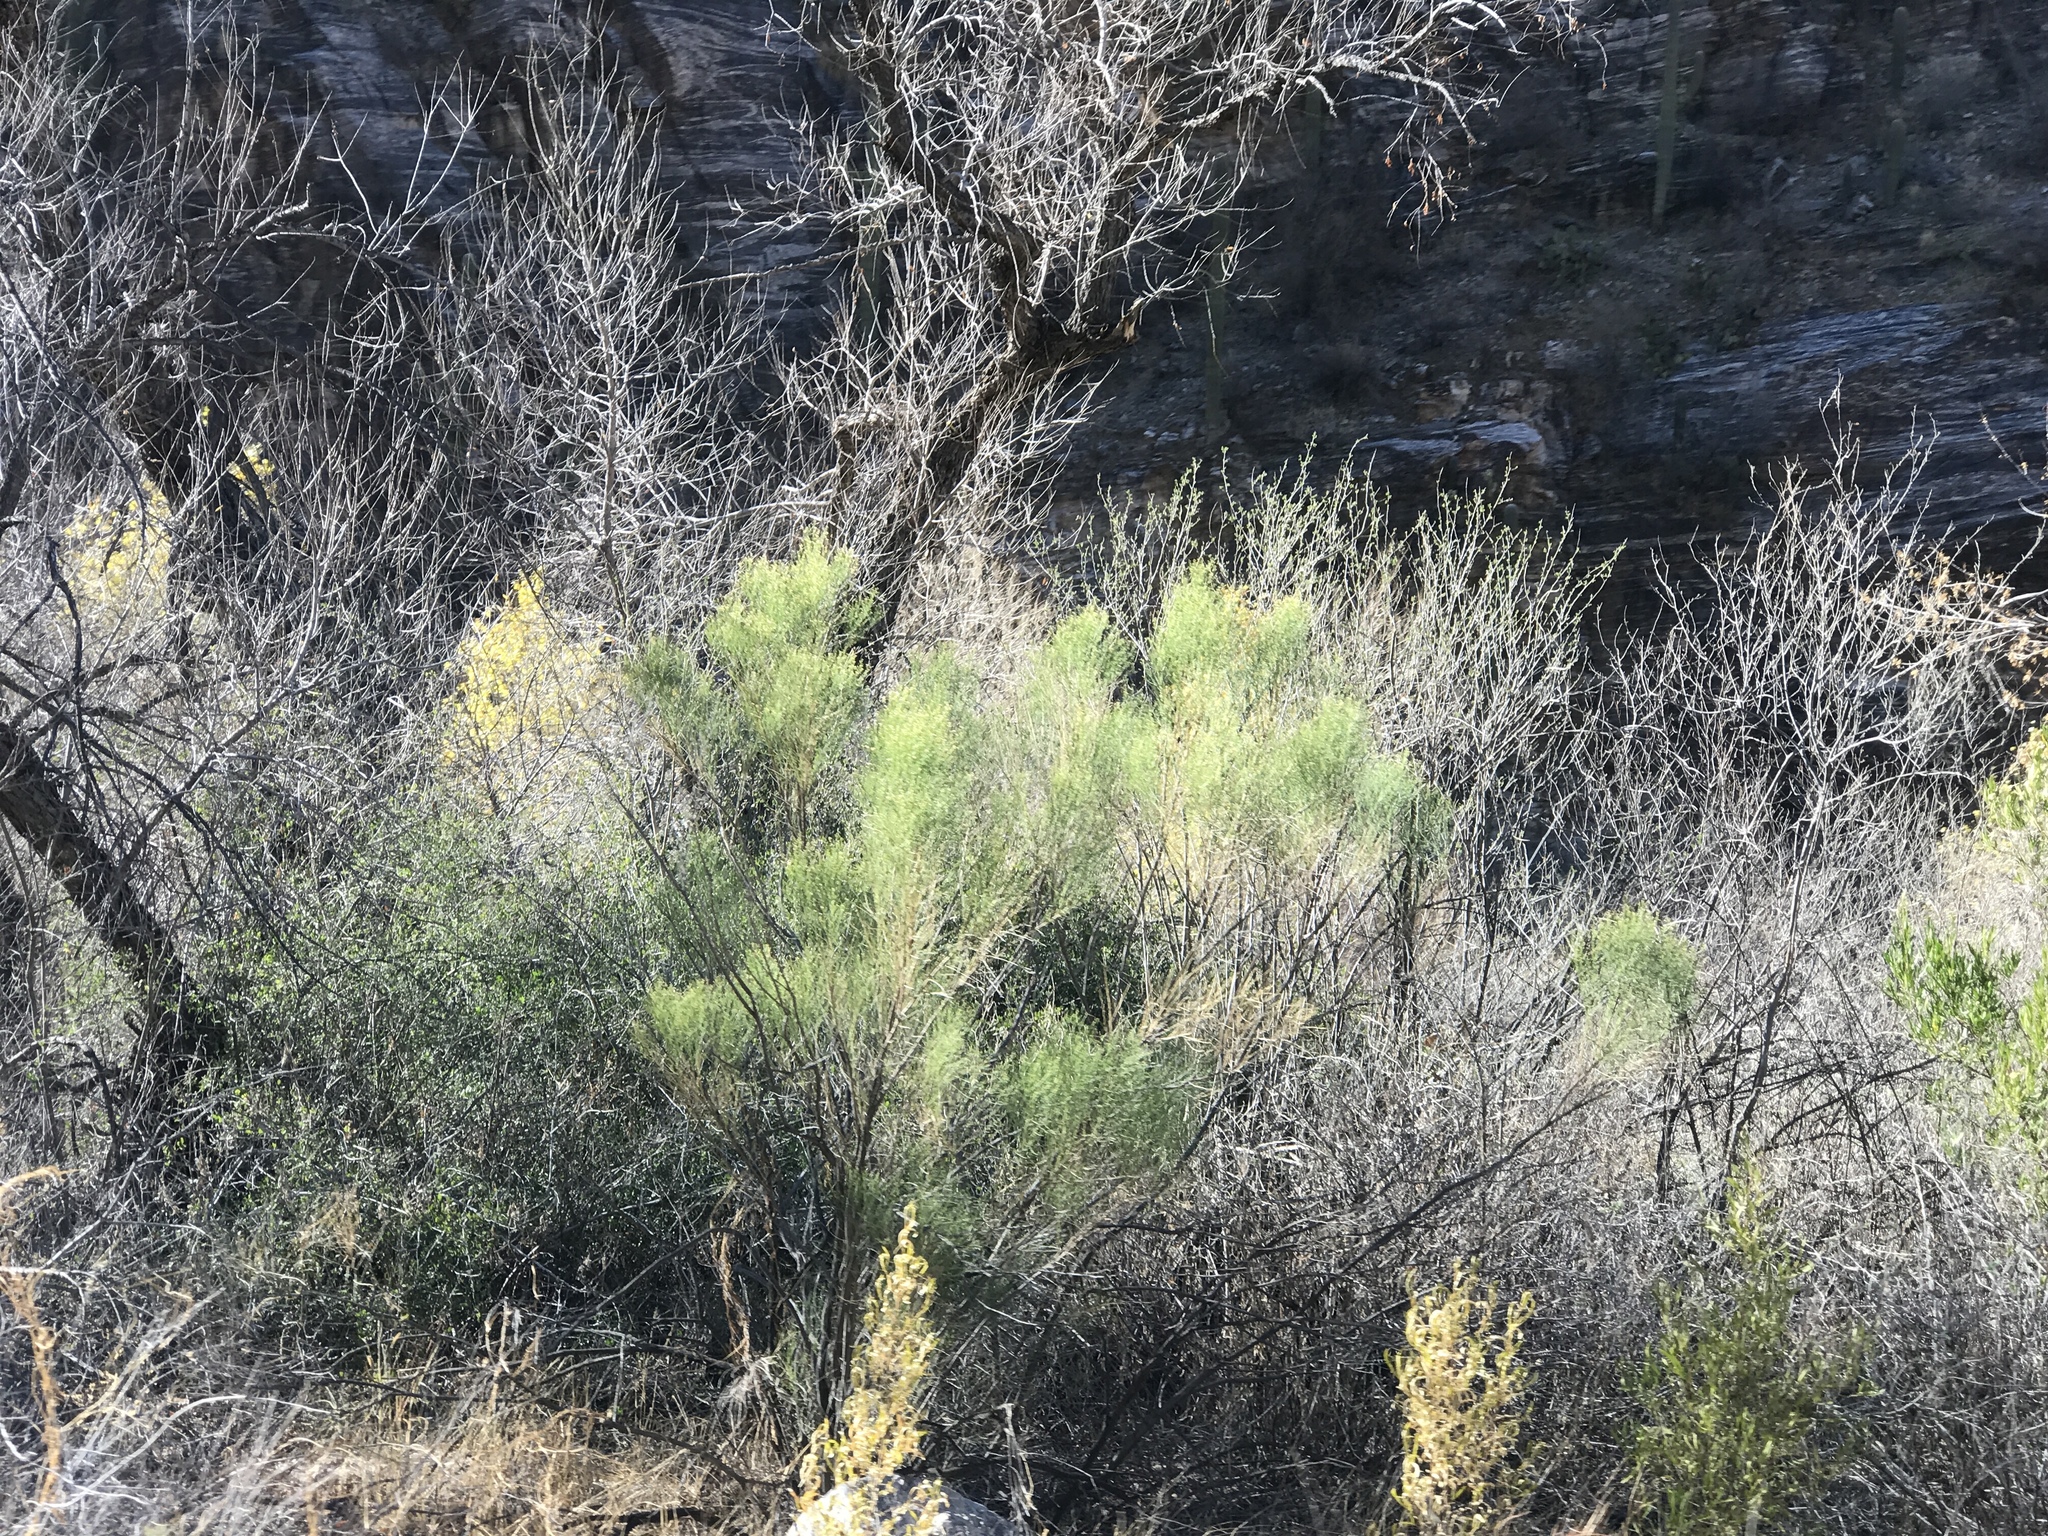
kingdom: Plantae
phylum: Tracheophyta
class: Magnoliopsida
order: Asterales
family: Asteraceae
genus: Baccharis
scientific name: Baccharis sarothroides
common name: Desert-broom
